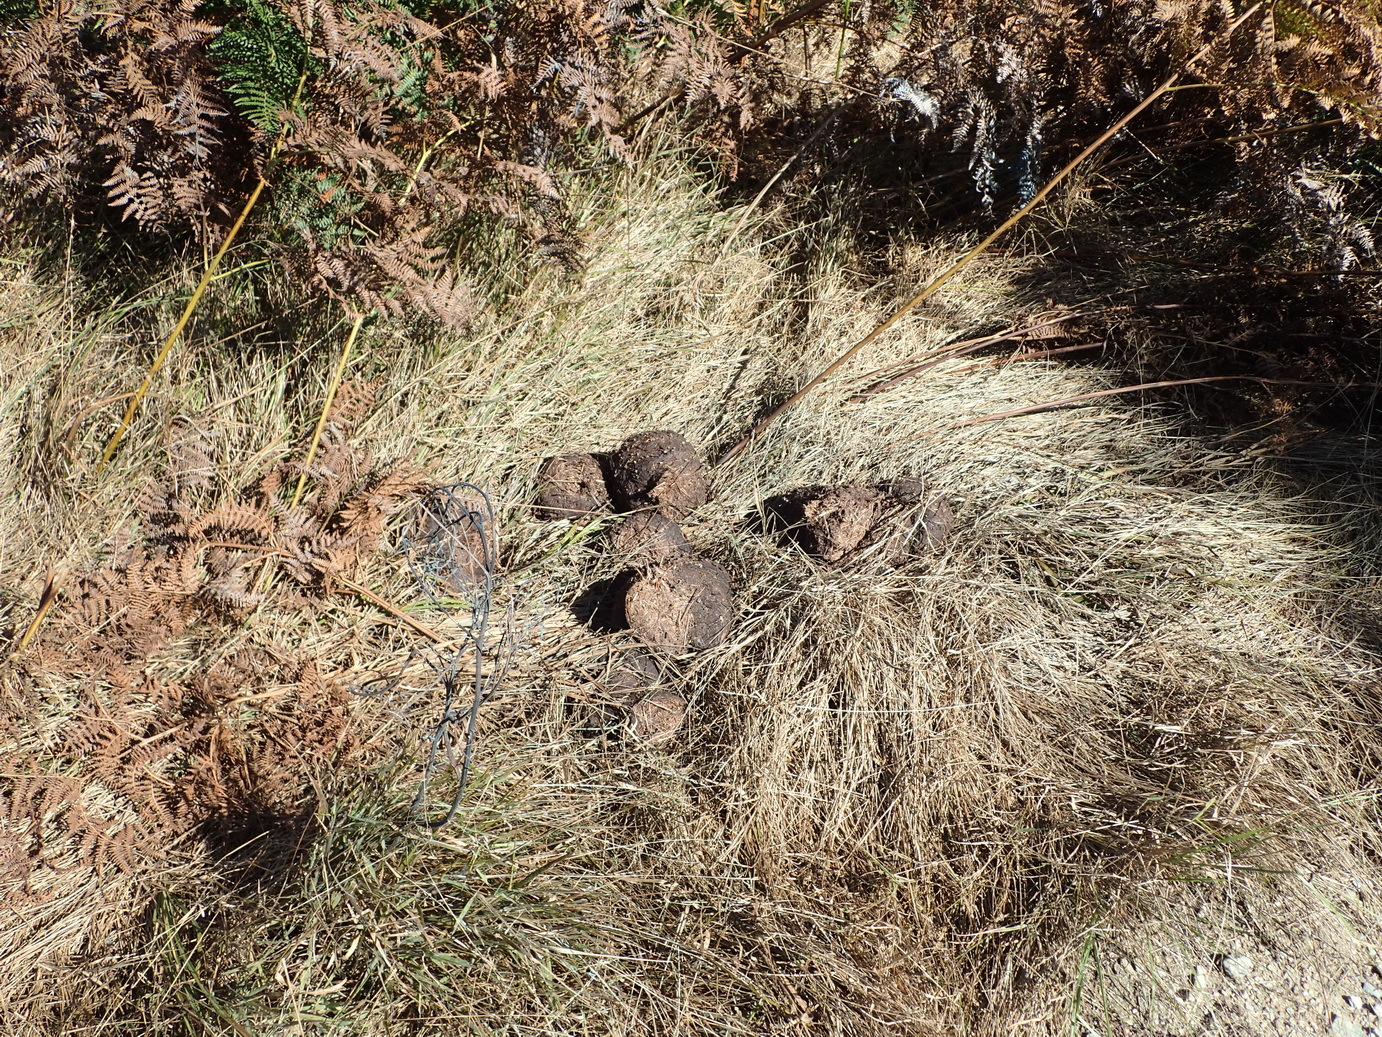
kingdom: Animalia
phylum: Chordata
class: Mammalia
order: Proboscidea
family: Elephantidae
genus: Loxodonta
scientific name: Loxodonta africana
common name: African elephant
